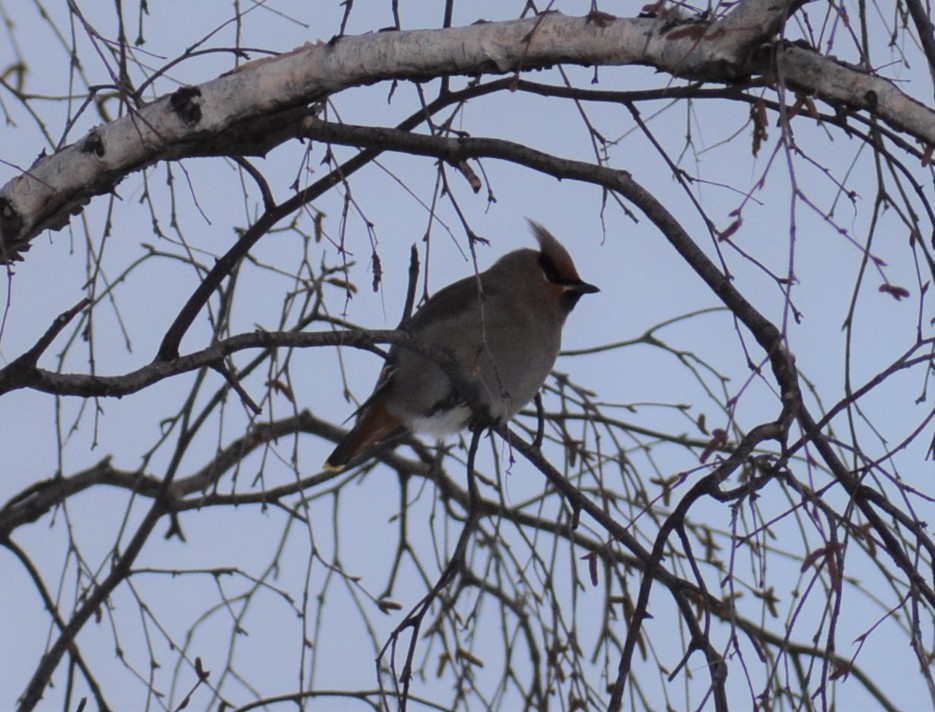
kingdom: Animalia
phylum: Chordata
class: Aves
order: Passeriformes
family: Bombycillidae
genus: Bombycilla
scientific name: Bombycilla garrulus
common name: Bohemian waxwing
